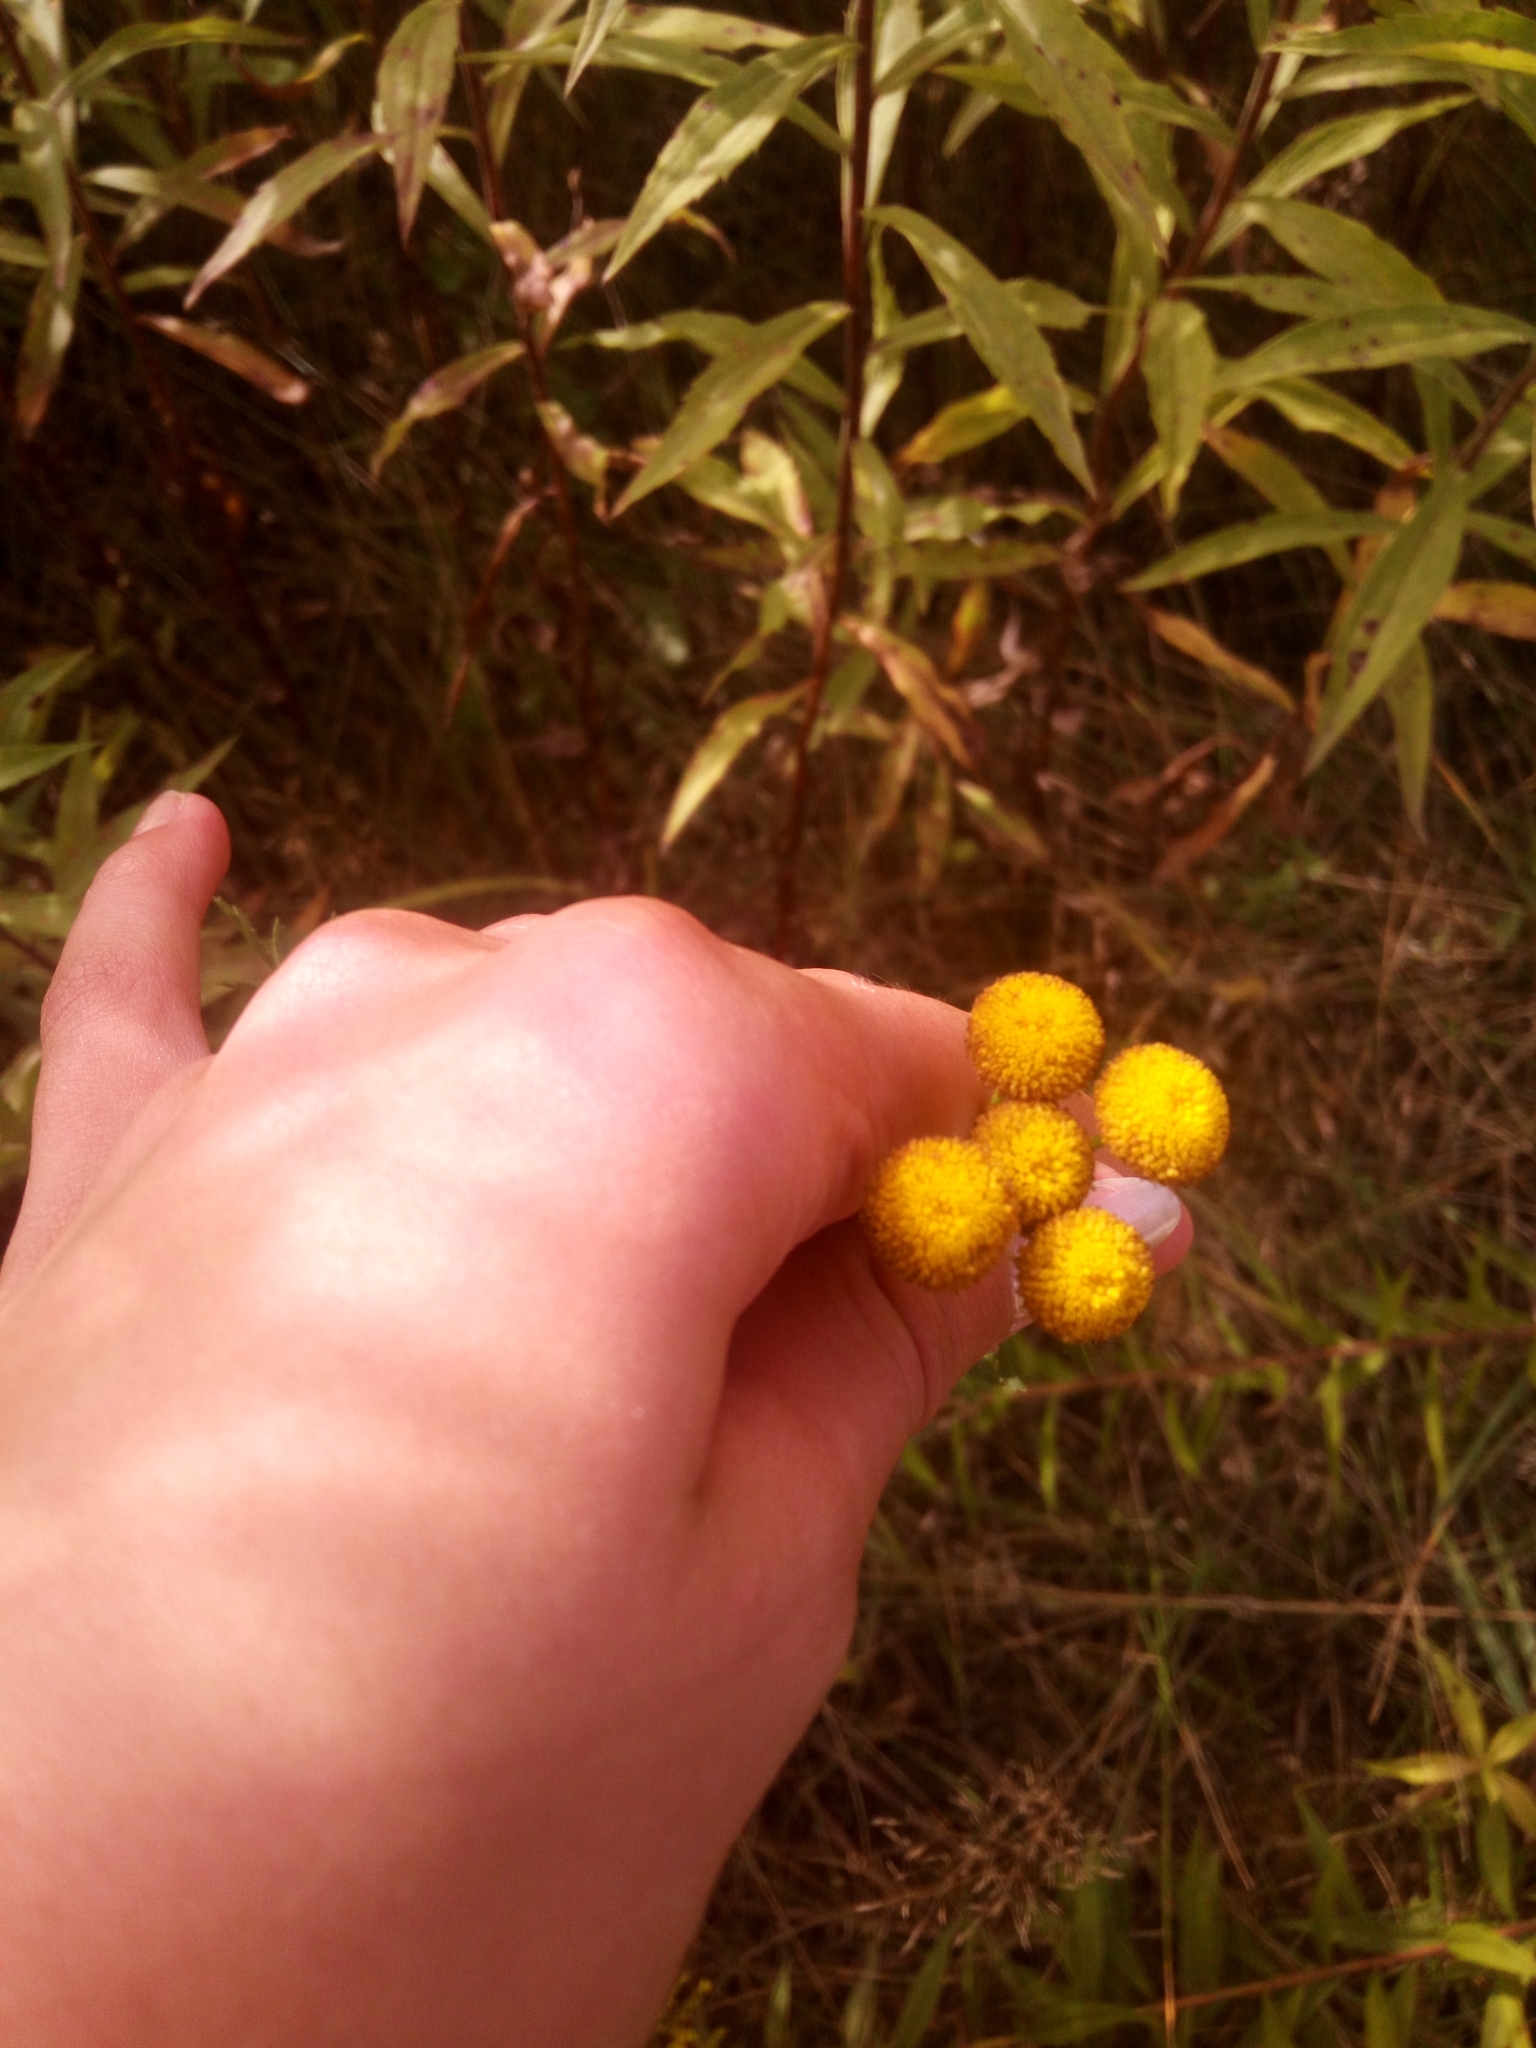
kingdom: Plantae
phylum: Tracheophyta
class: Magnoliopsida
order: Asterales
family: Asteraceae
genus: Tanacetum
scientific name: Tanacetum vulgare
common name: Common tansy
